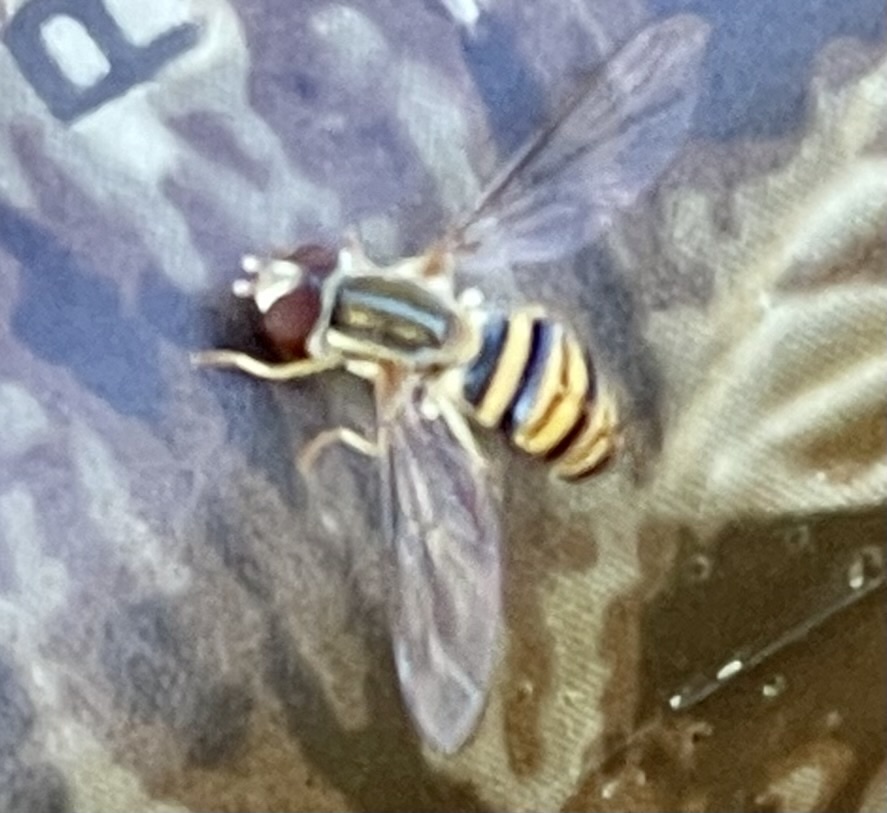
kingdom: Animalia
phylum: Arthropoda
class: Insecta
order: Diptera
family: Syrphidae
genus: Toxomerus
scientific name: Toxomerus politus
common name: Maize calligrapher
